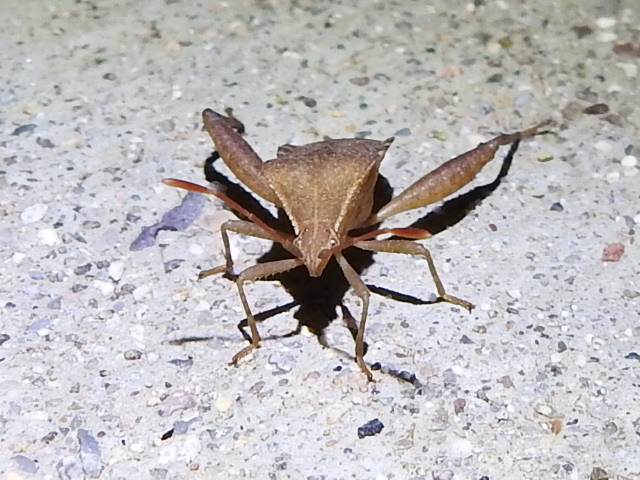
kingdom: Animalia
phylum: Arthropoda
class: Insecta
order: Hemiptera
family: Coreidae
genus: Mamurius
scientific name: Mamurius mopsus
